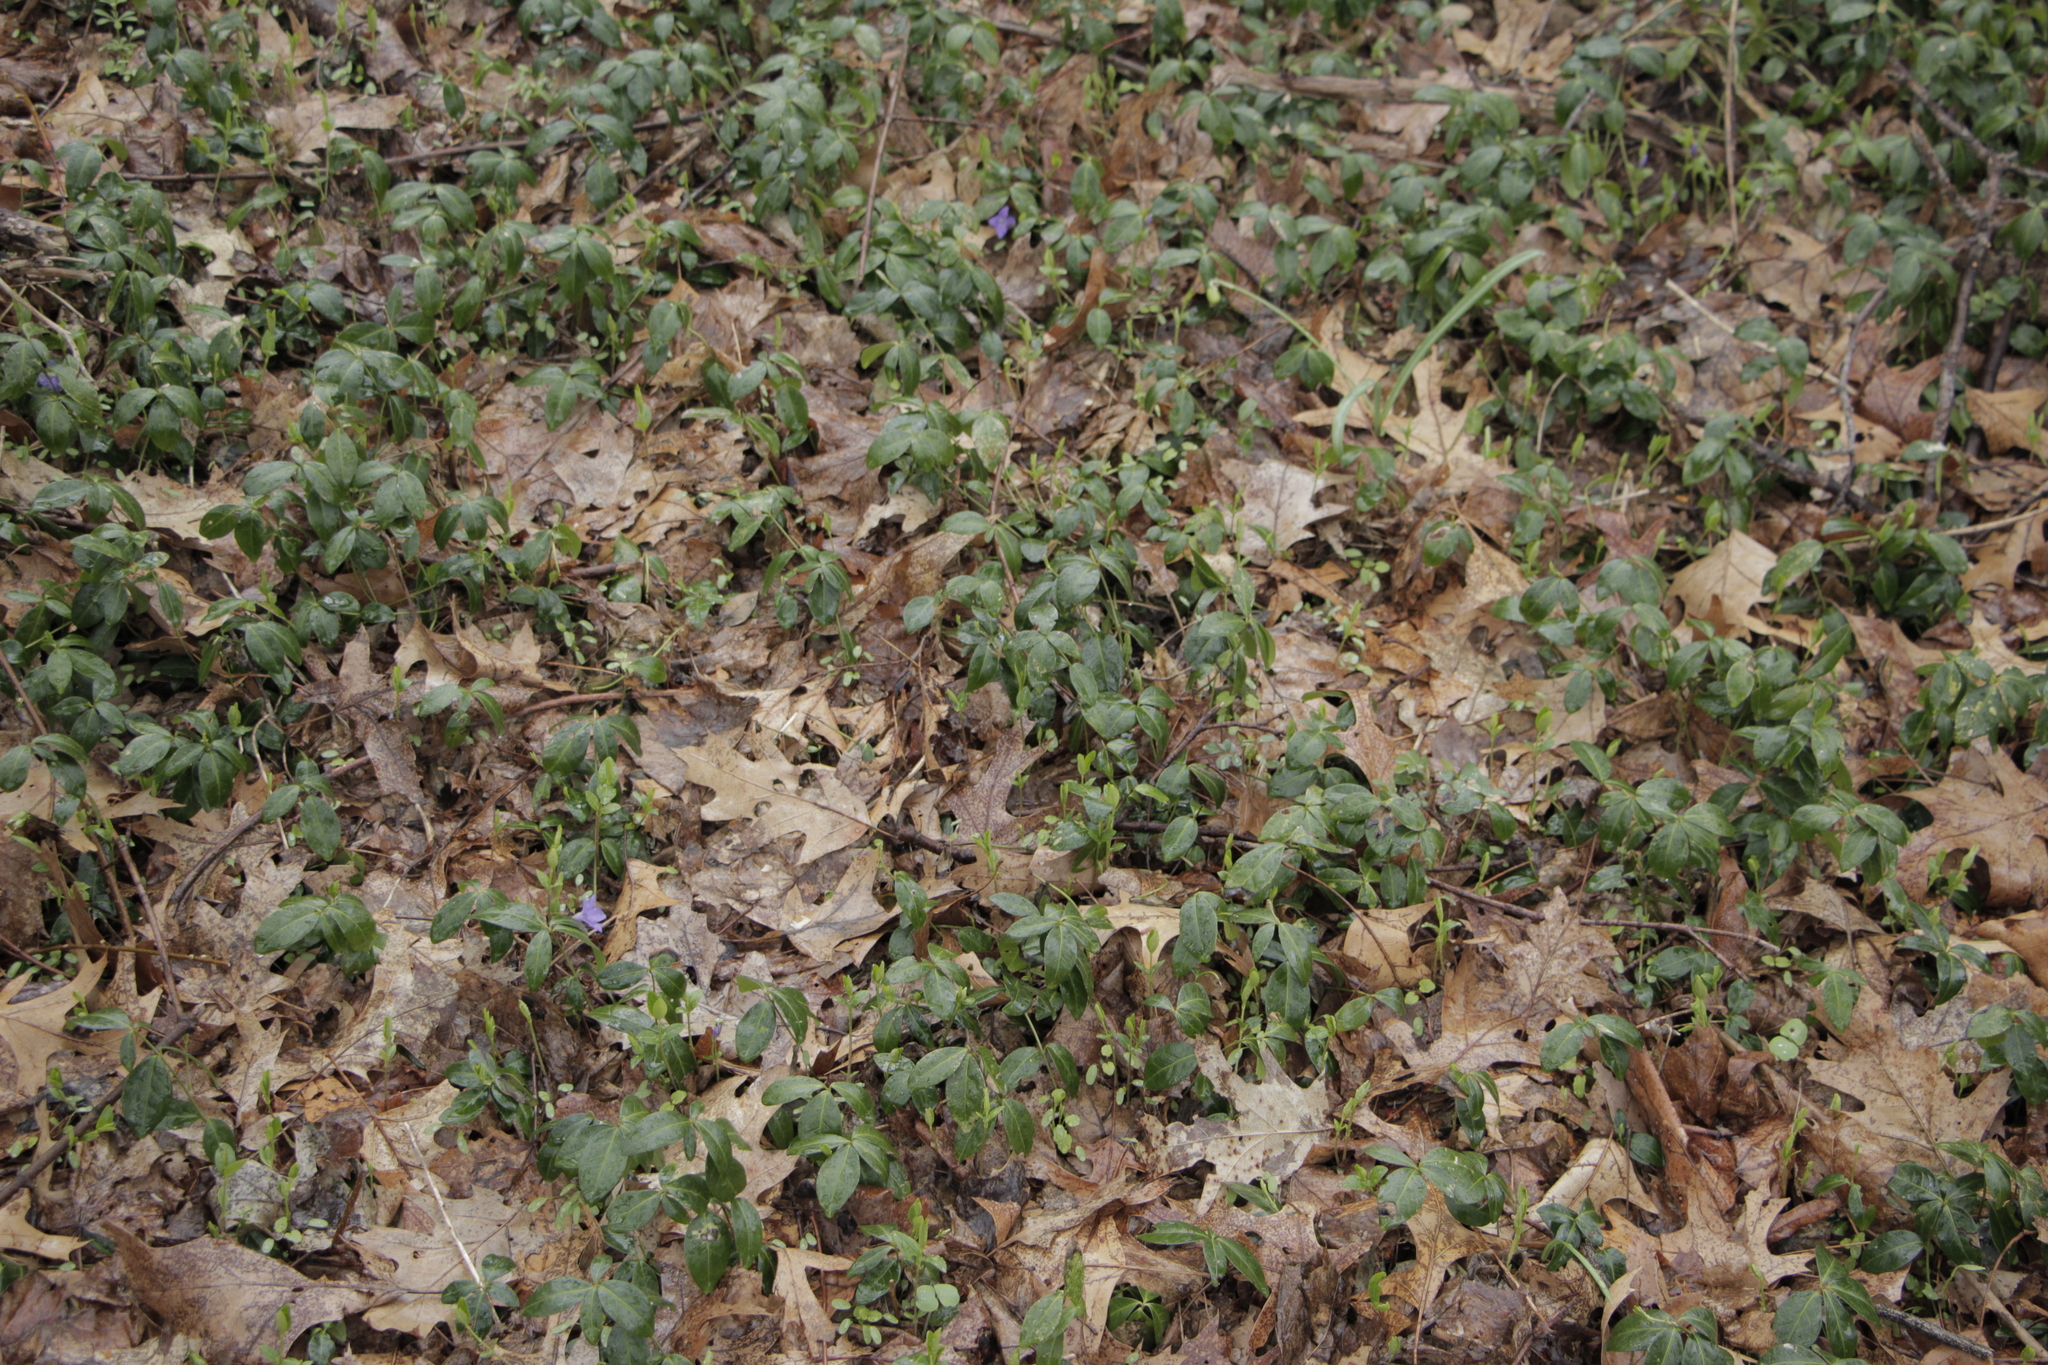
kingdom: Plantae
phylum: Tracheophyta
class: Magnoliopsida
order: Gentianales
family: Apocynaceae
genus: Vinca
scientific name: Vinca minor
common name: Lesser periwinkle
